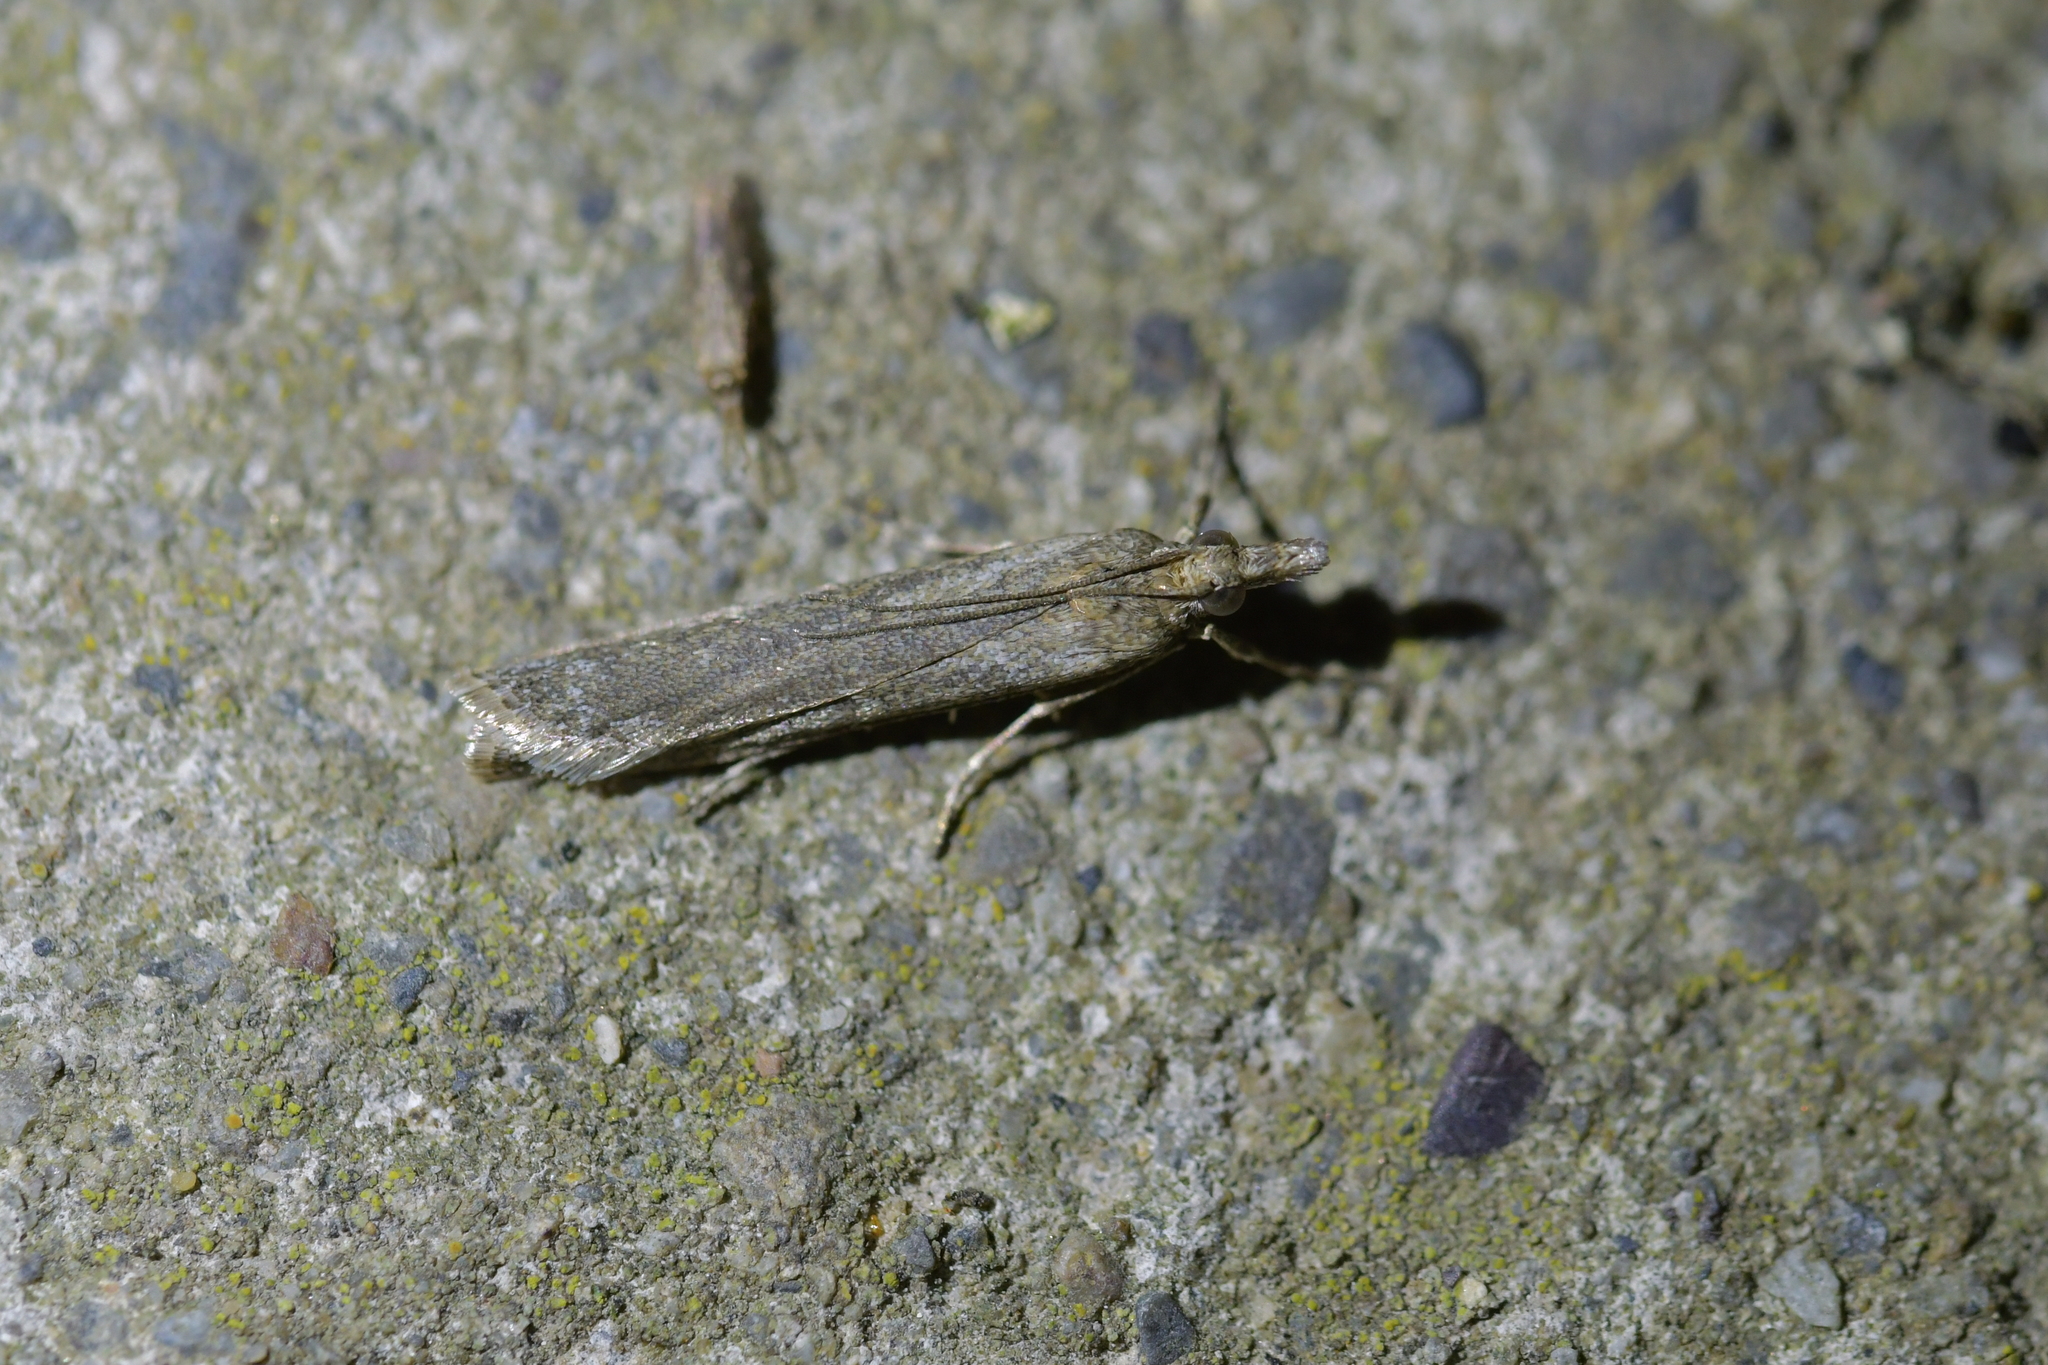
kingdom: Animalia
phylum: Arthropoda
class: Insecta
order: Lepidoptera
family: Crambidae
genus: Eudonia
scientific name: Eudonia leptalea
